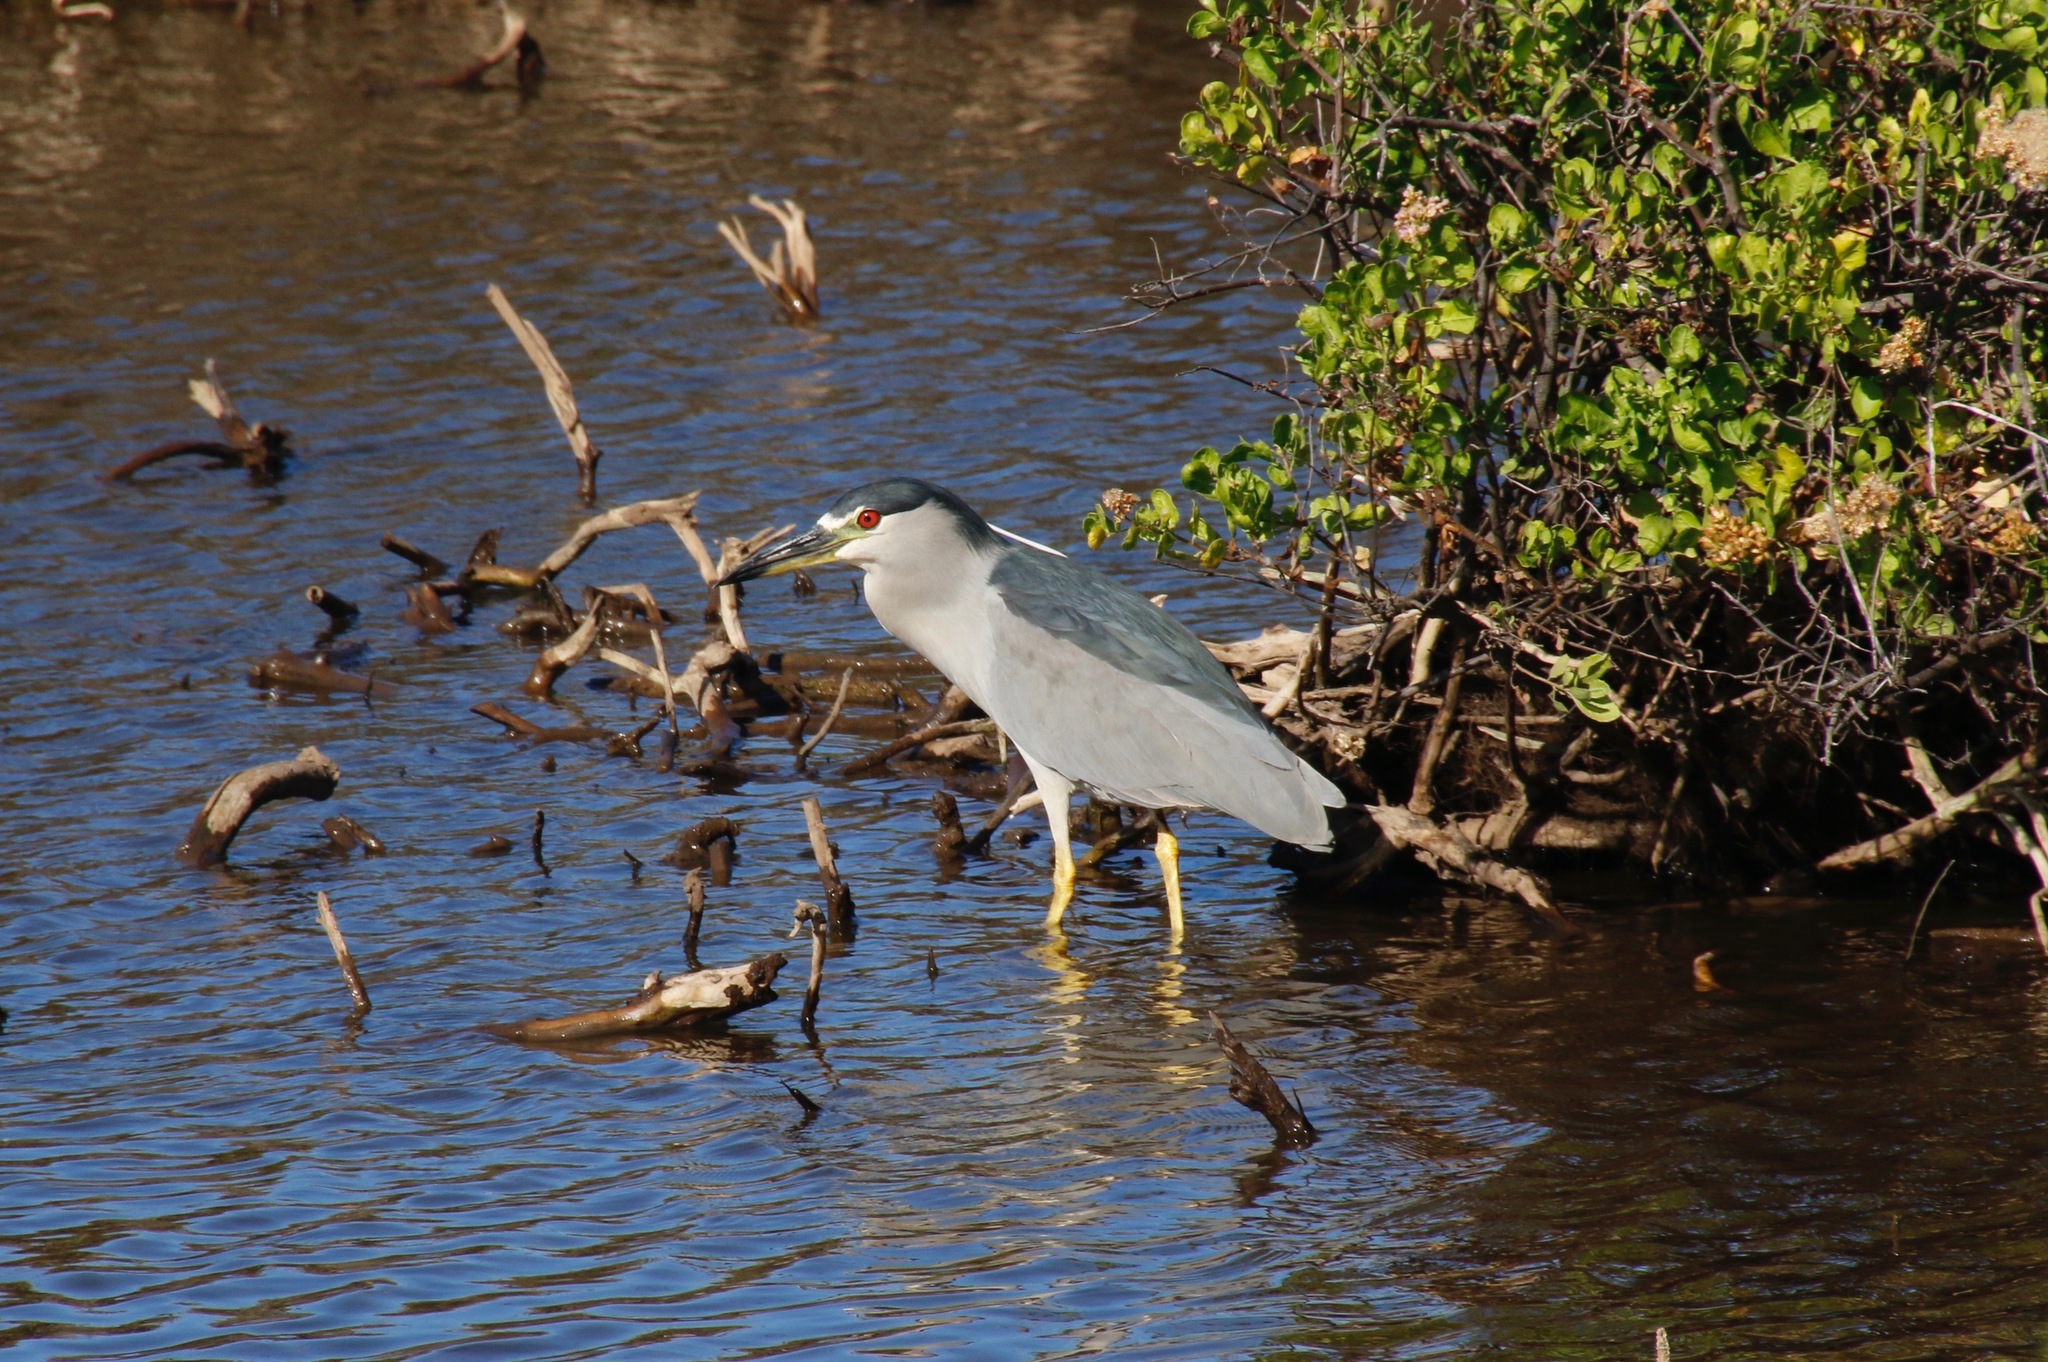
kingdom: Animalia
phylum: Chordata
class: Aves
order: Pelecaniformes
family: Ardeidae
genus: Nycticorax
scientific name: Nycticorax nycticorax
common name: Black-crowned night heron
